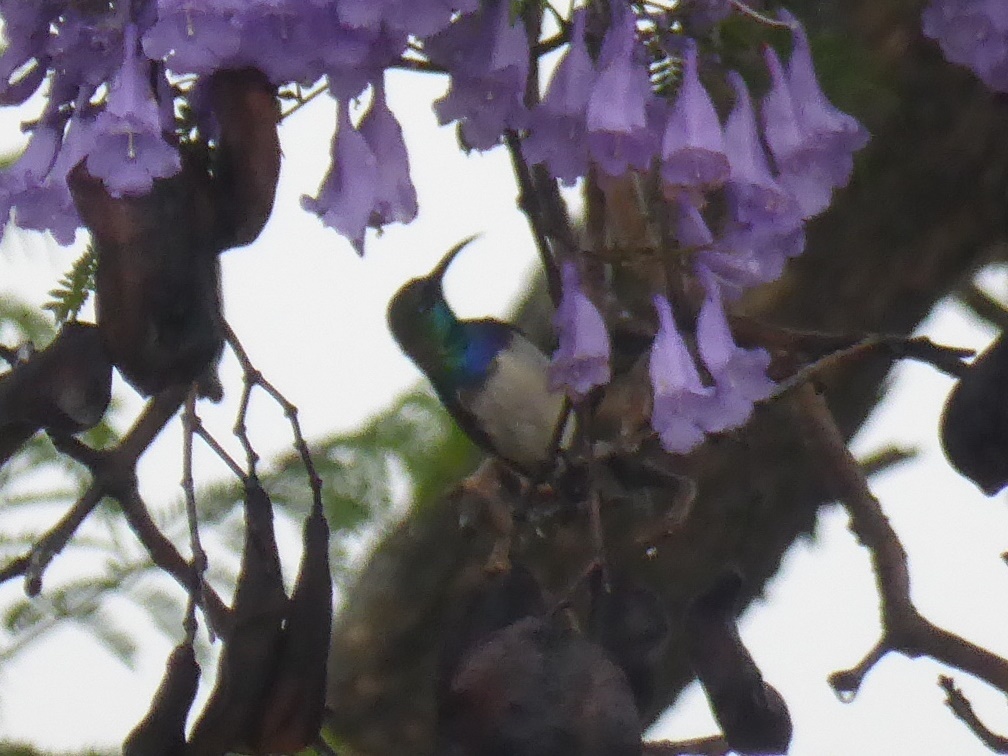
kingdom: Animalia
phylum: Chordata
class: Aves
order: Passeriformes
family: Nectariniidae
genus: Cinnyris
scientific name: Cinnyris talatala
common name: White-bellied sunbird
